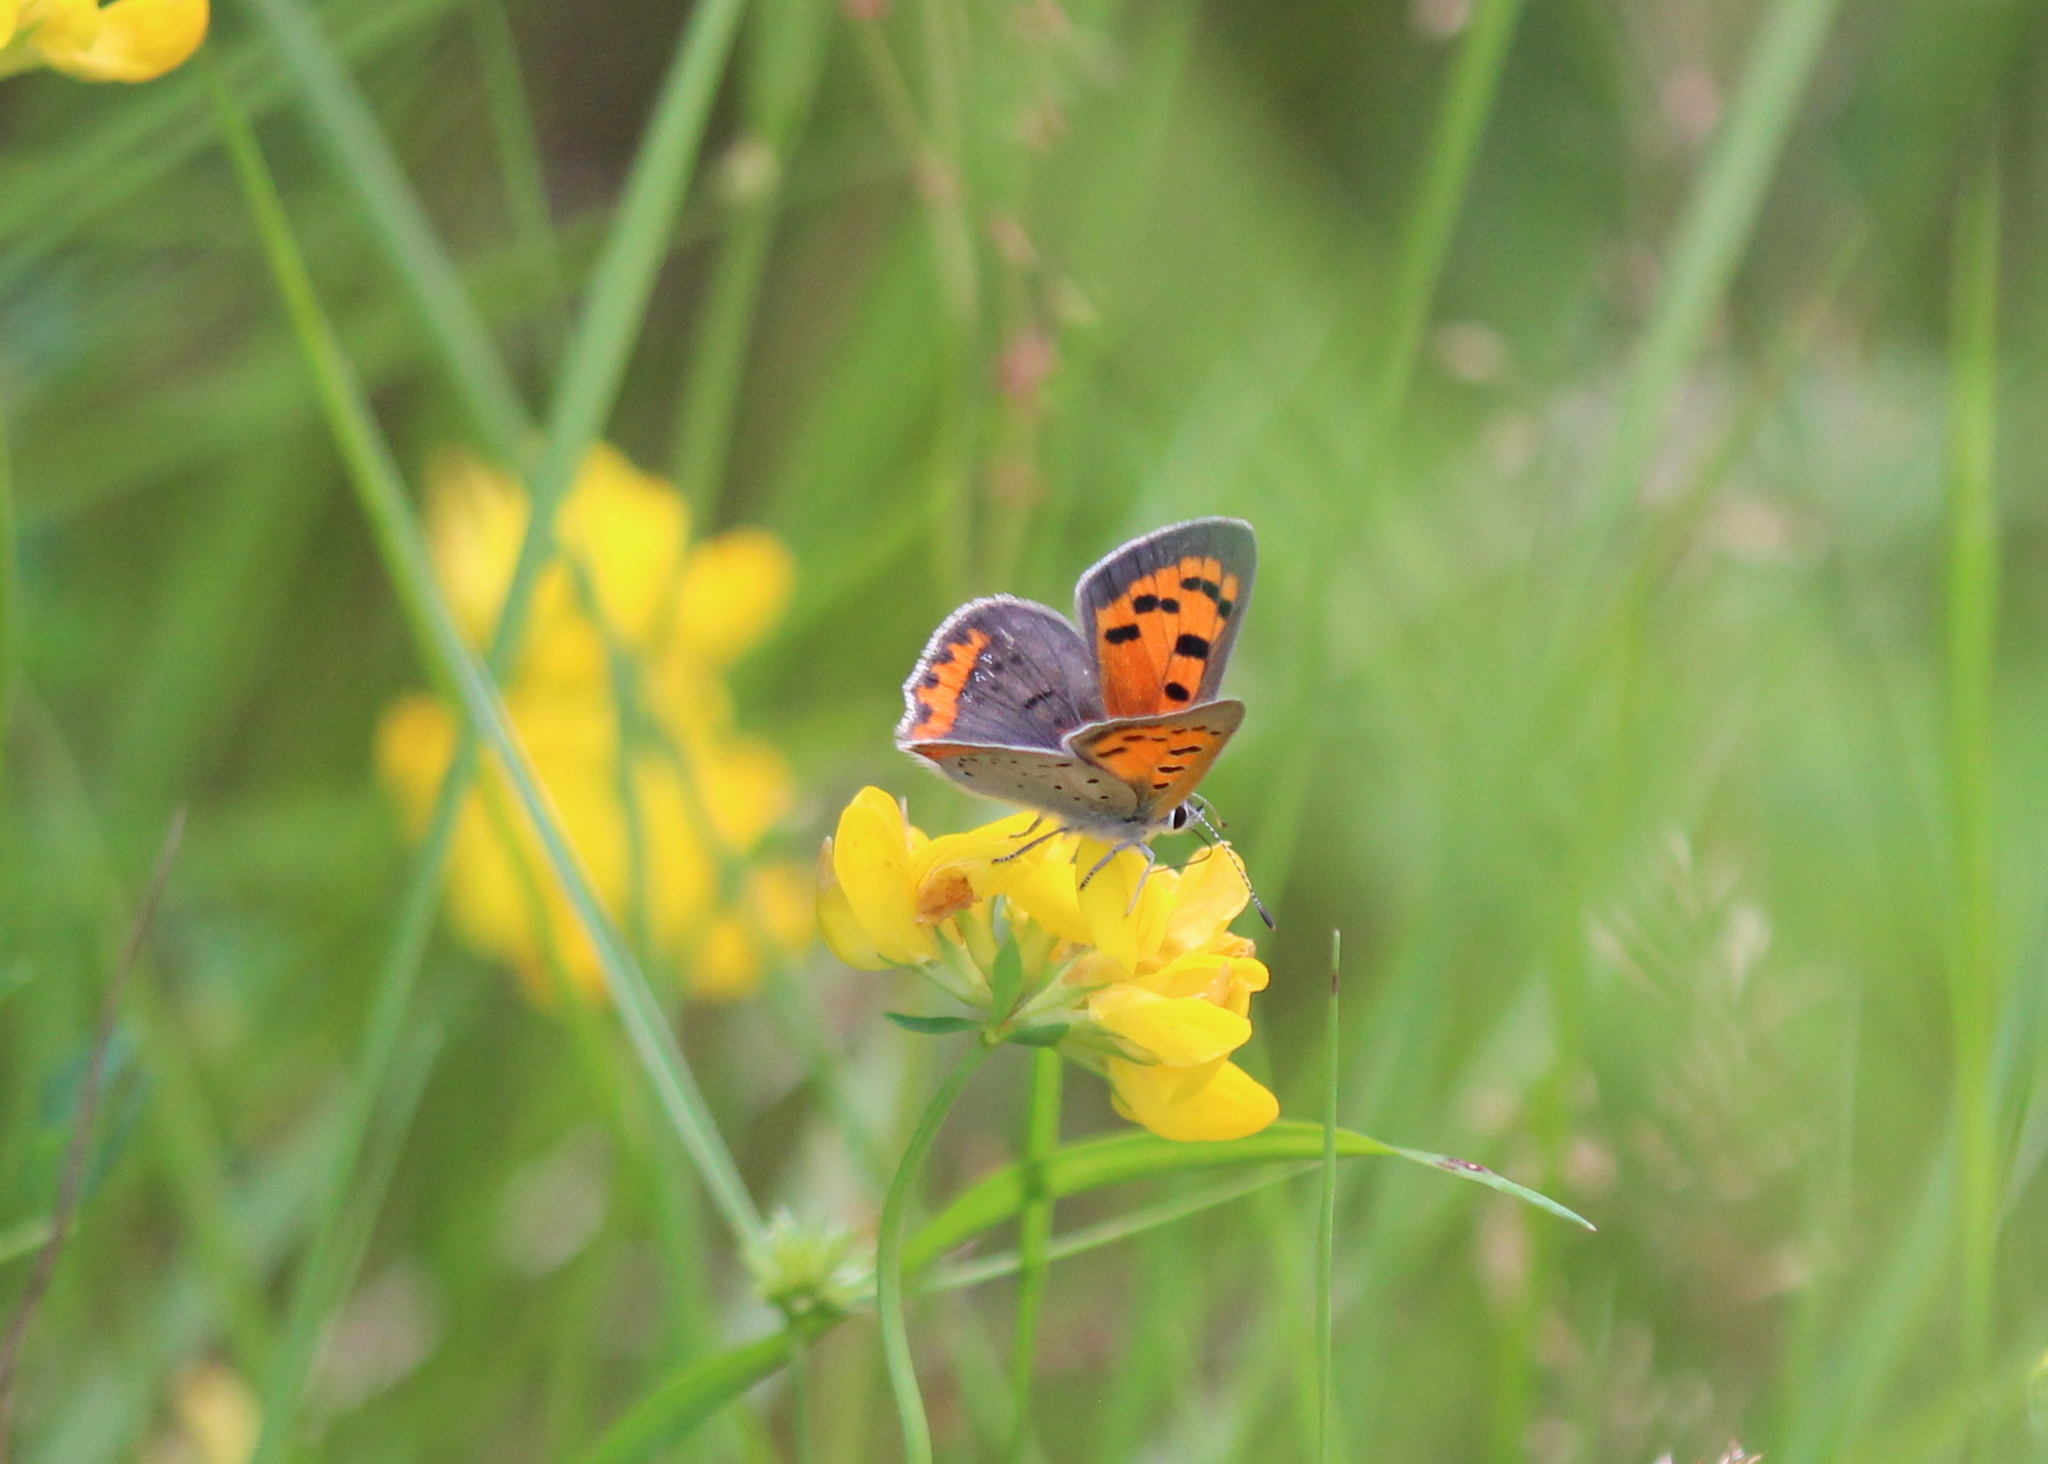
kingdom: Animalia
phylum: Arthropoda
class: Insecta
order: Lepidoptera
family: Lycaenidae
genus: Lycaena
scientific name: Lycaena hypophlaeas
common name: American copper
